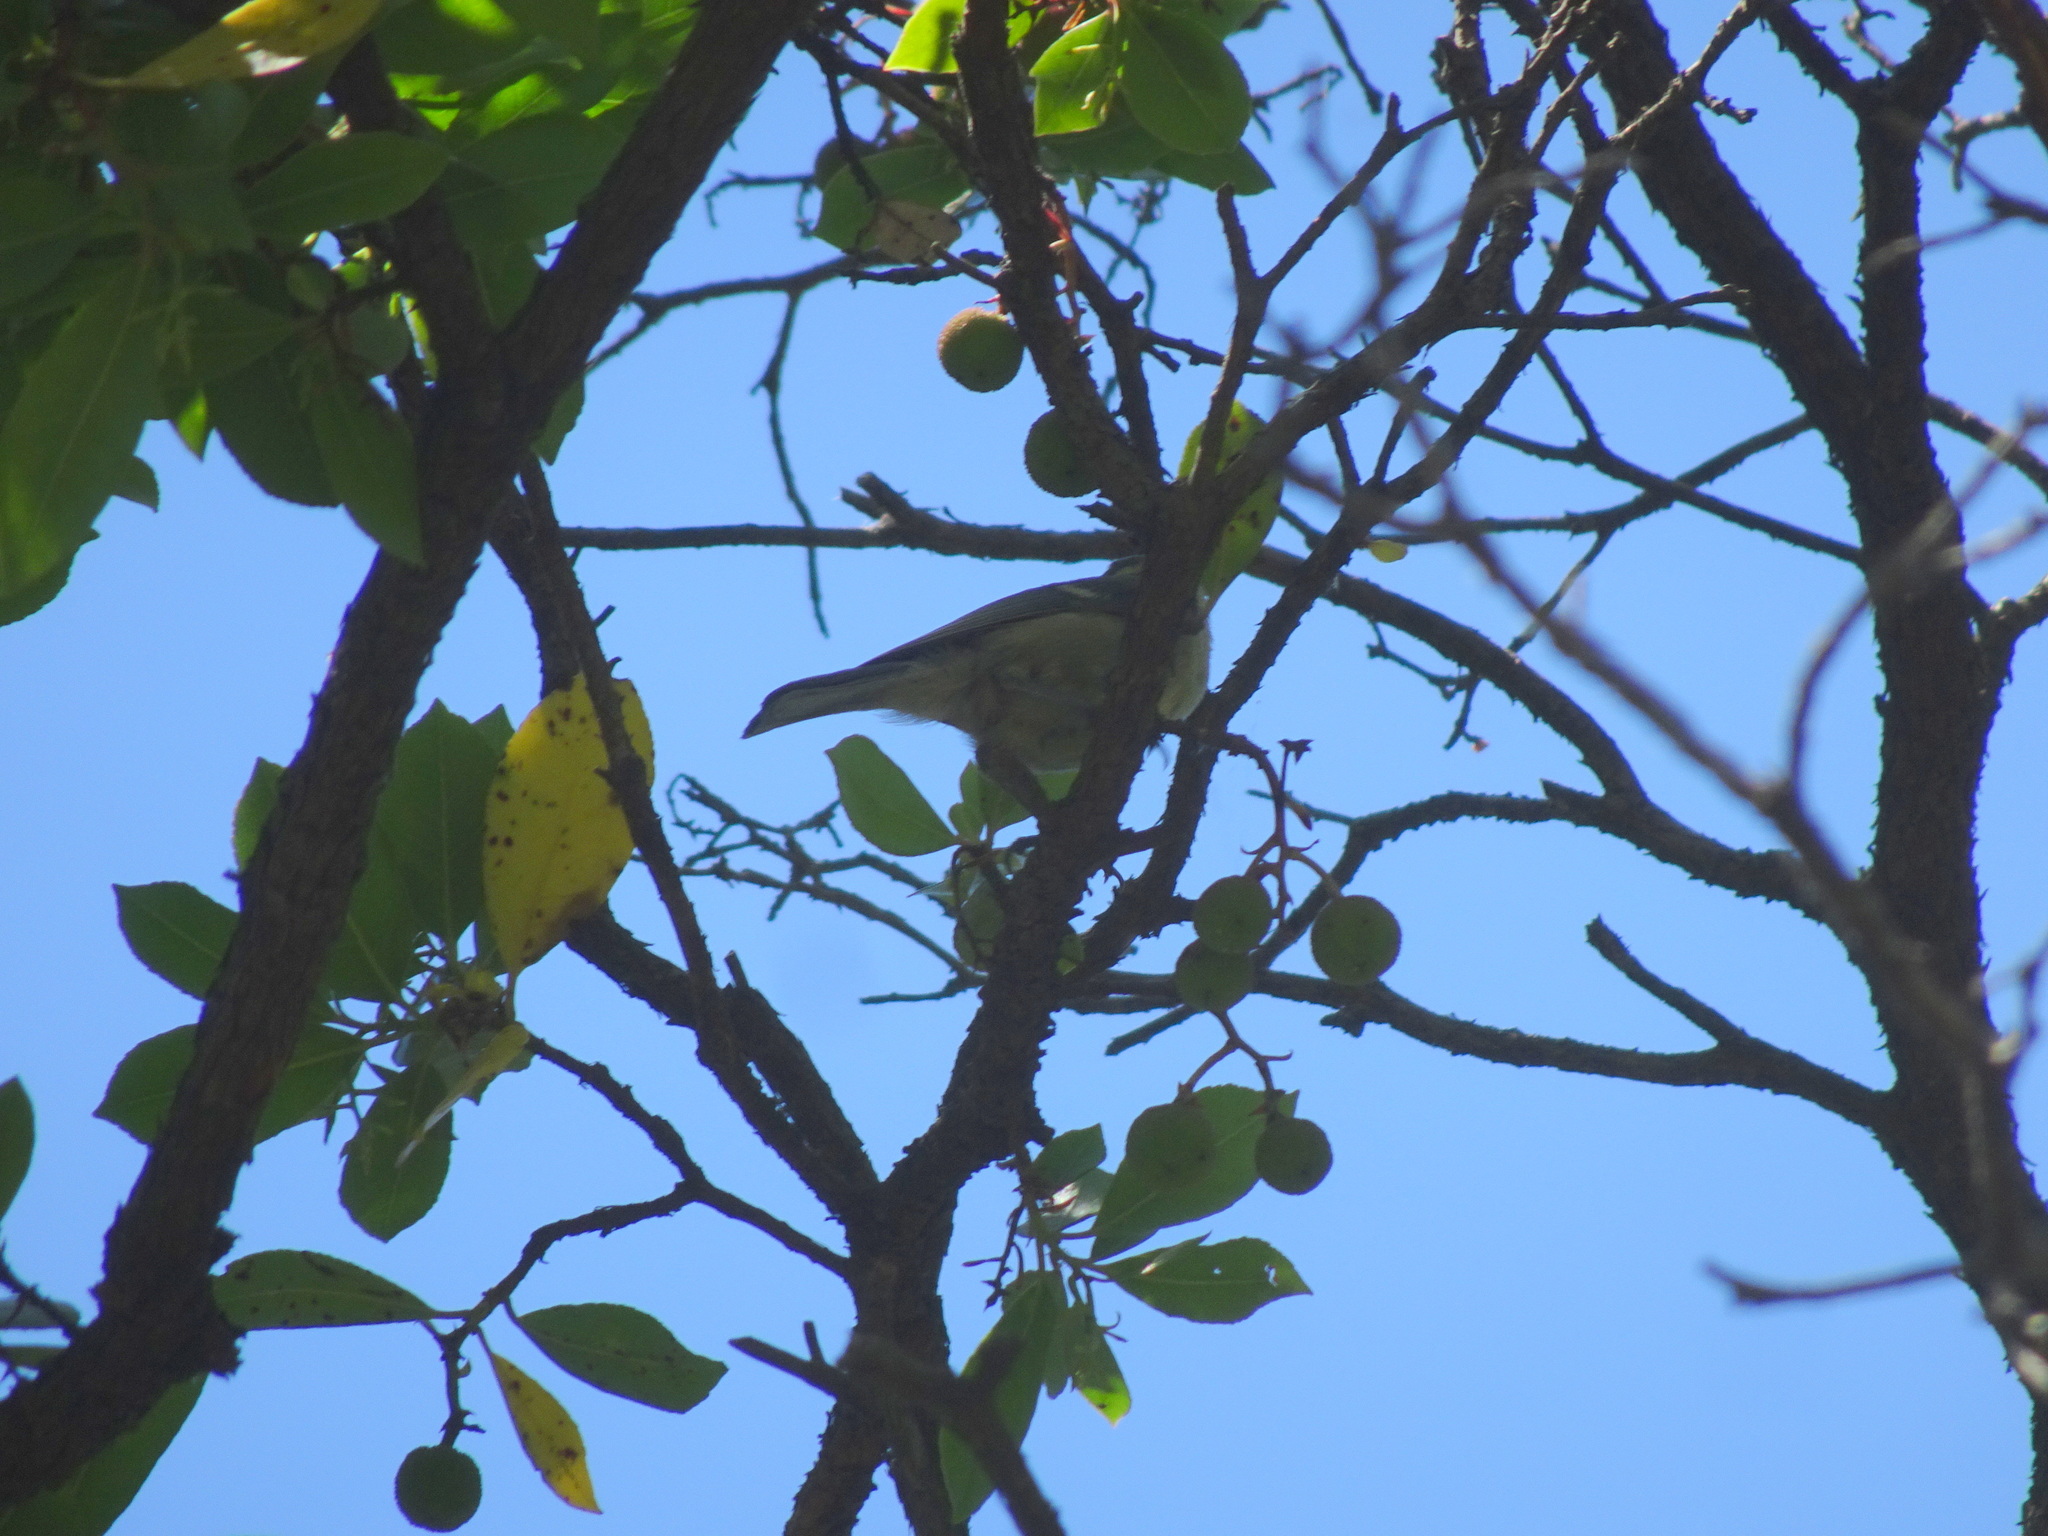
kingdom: Animalia
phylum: Chordata
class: Aves
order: Passeriformes
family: Paridae
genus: Cyanistes
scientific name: Cyanistes caeruleus
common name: Eurasian blue tit
